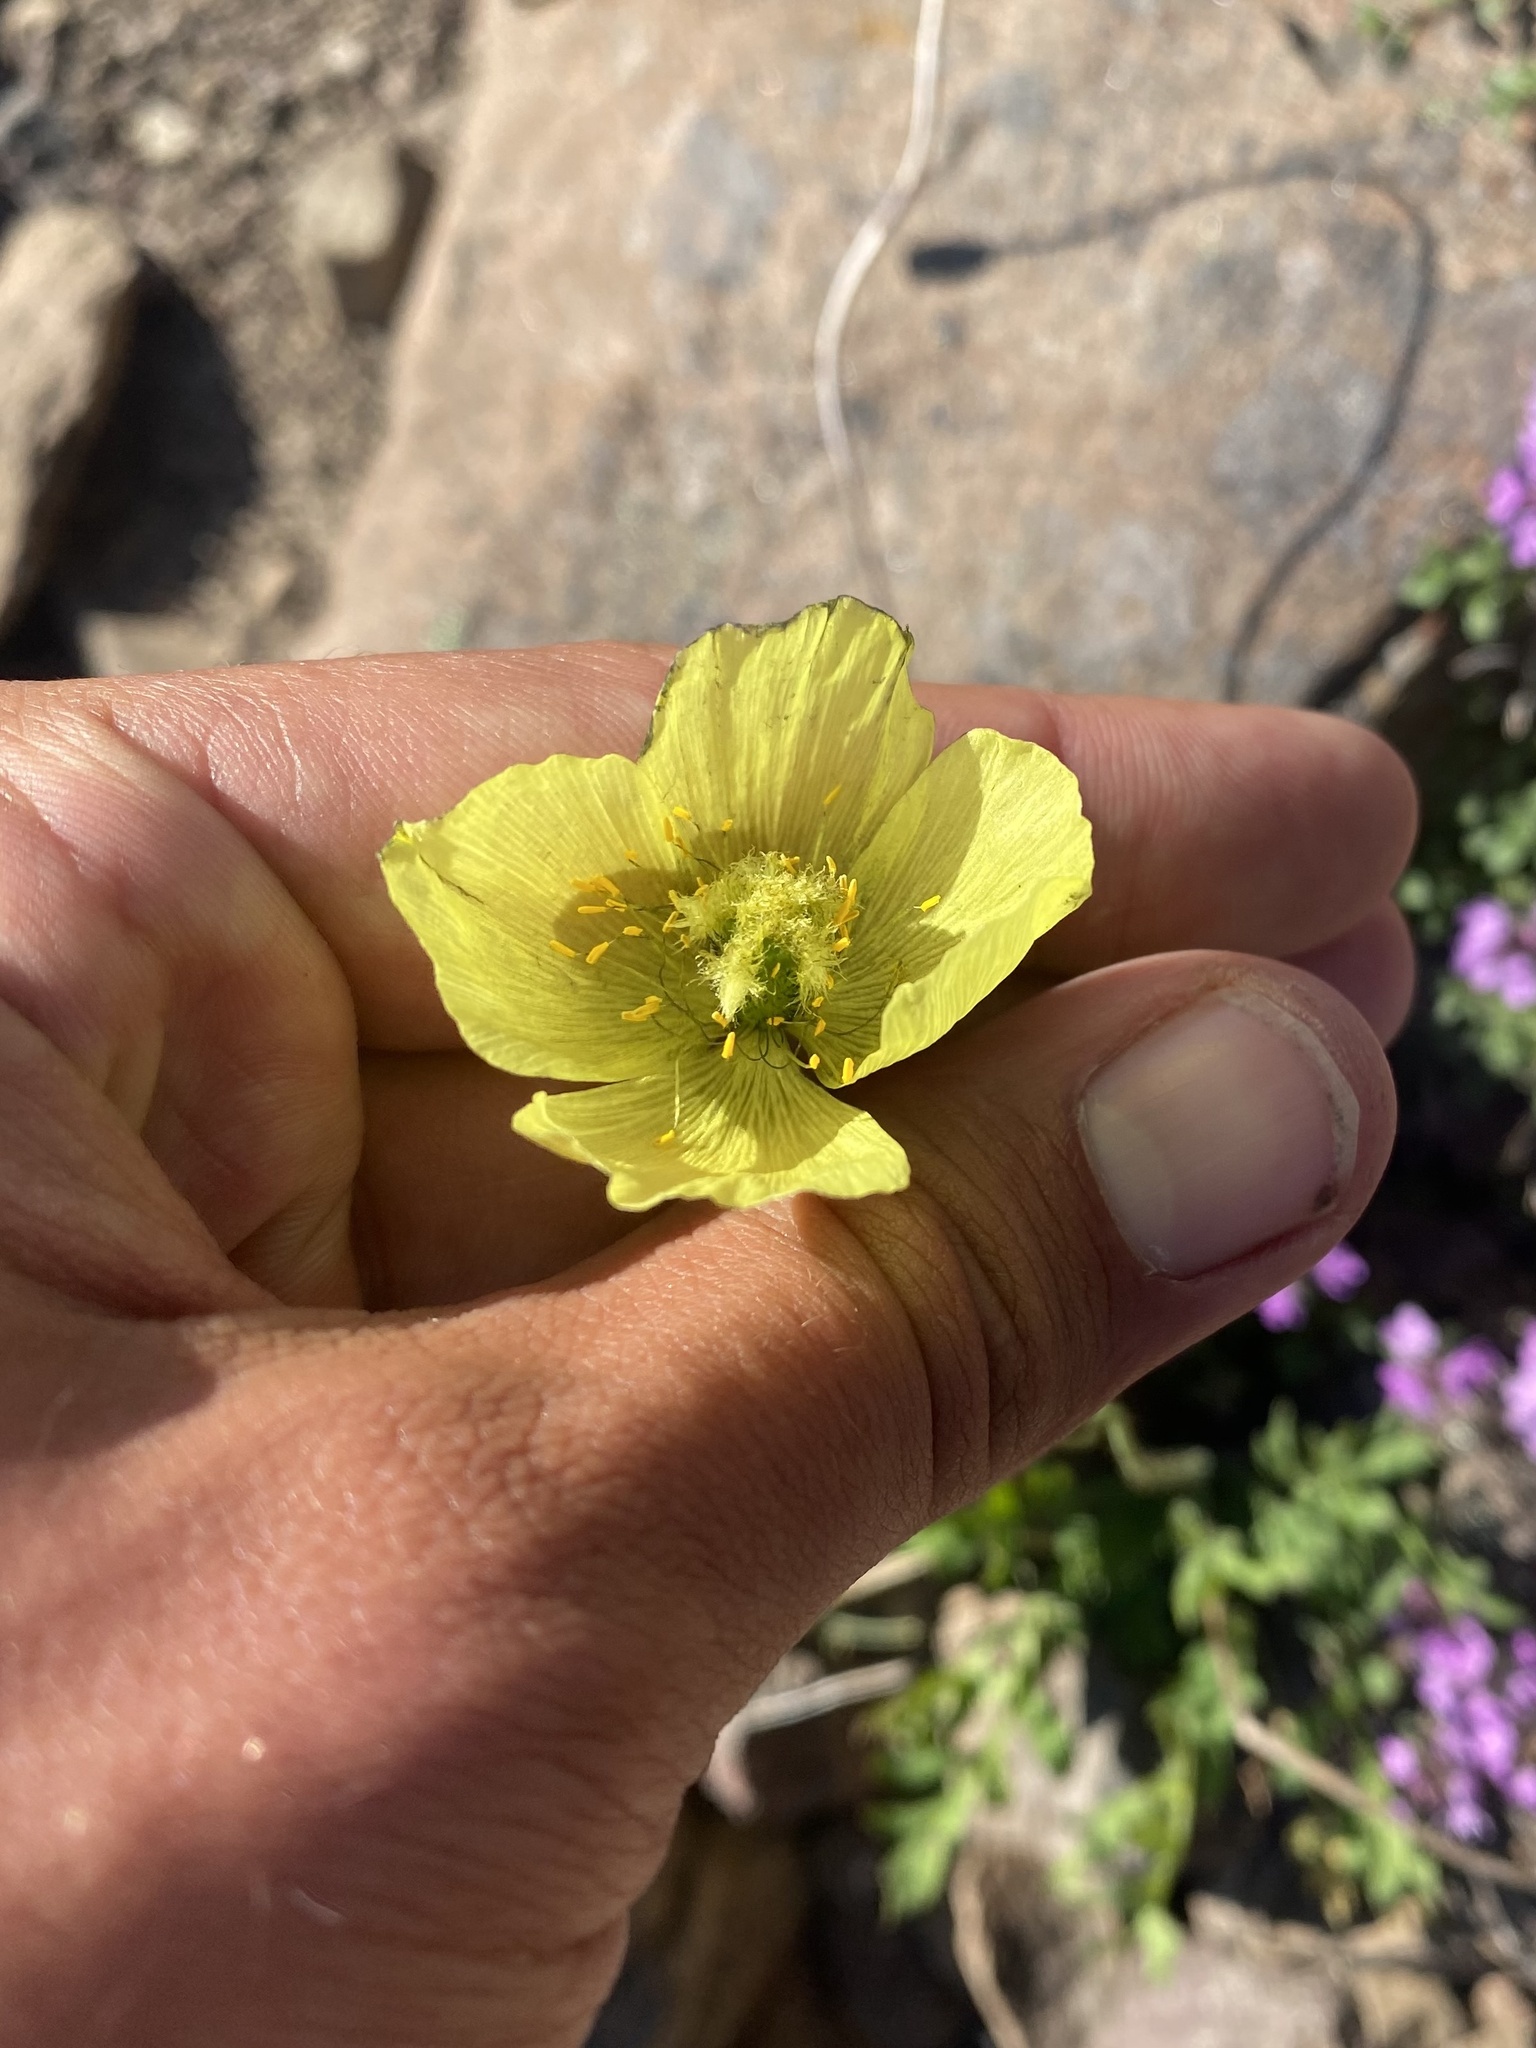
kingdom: Plantae
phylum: Tracheophyta
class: Magnoliopsida
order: Ranunculales
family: Papaveraceae
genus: Papaver
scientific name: Papaver variegatum
